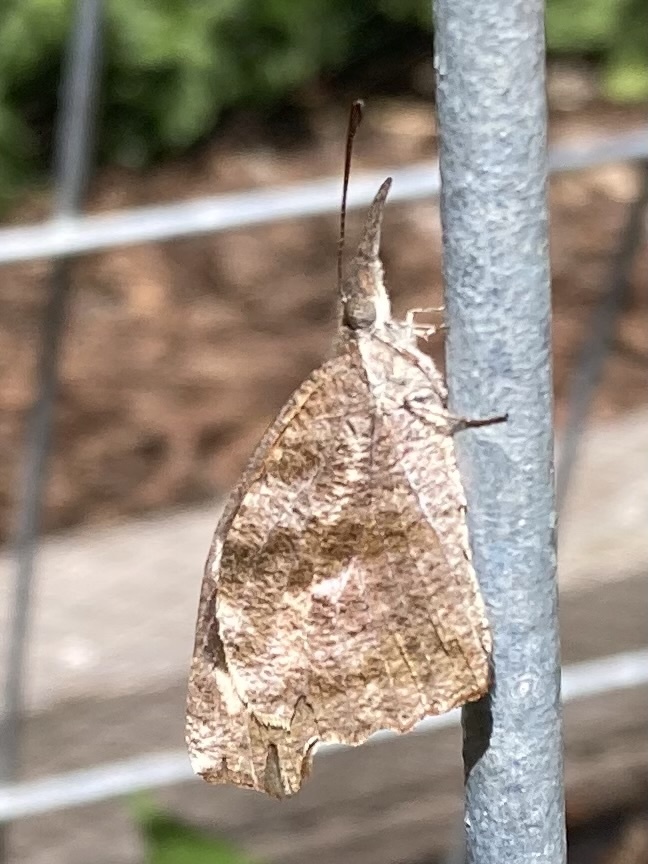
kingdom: Animalia
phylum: Arthropoda
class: Insecta
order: Lepidoptera
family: Nymphalidae
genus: Libytheana
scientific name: Libytheana carinenta
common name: American snout
